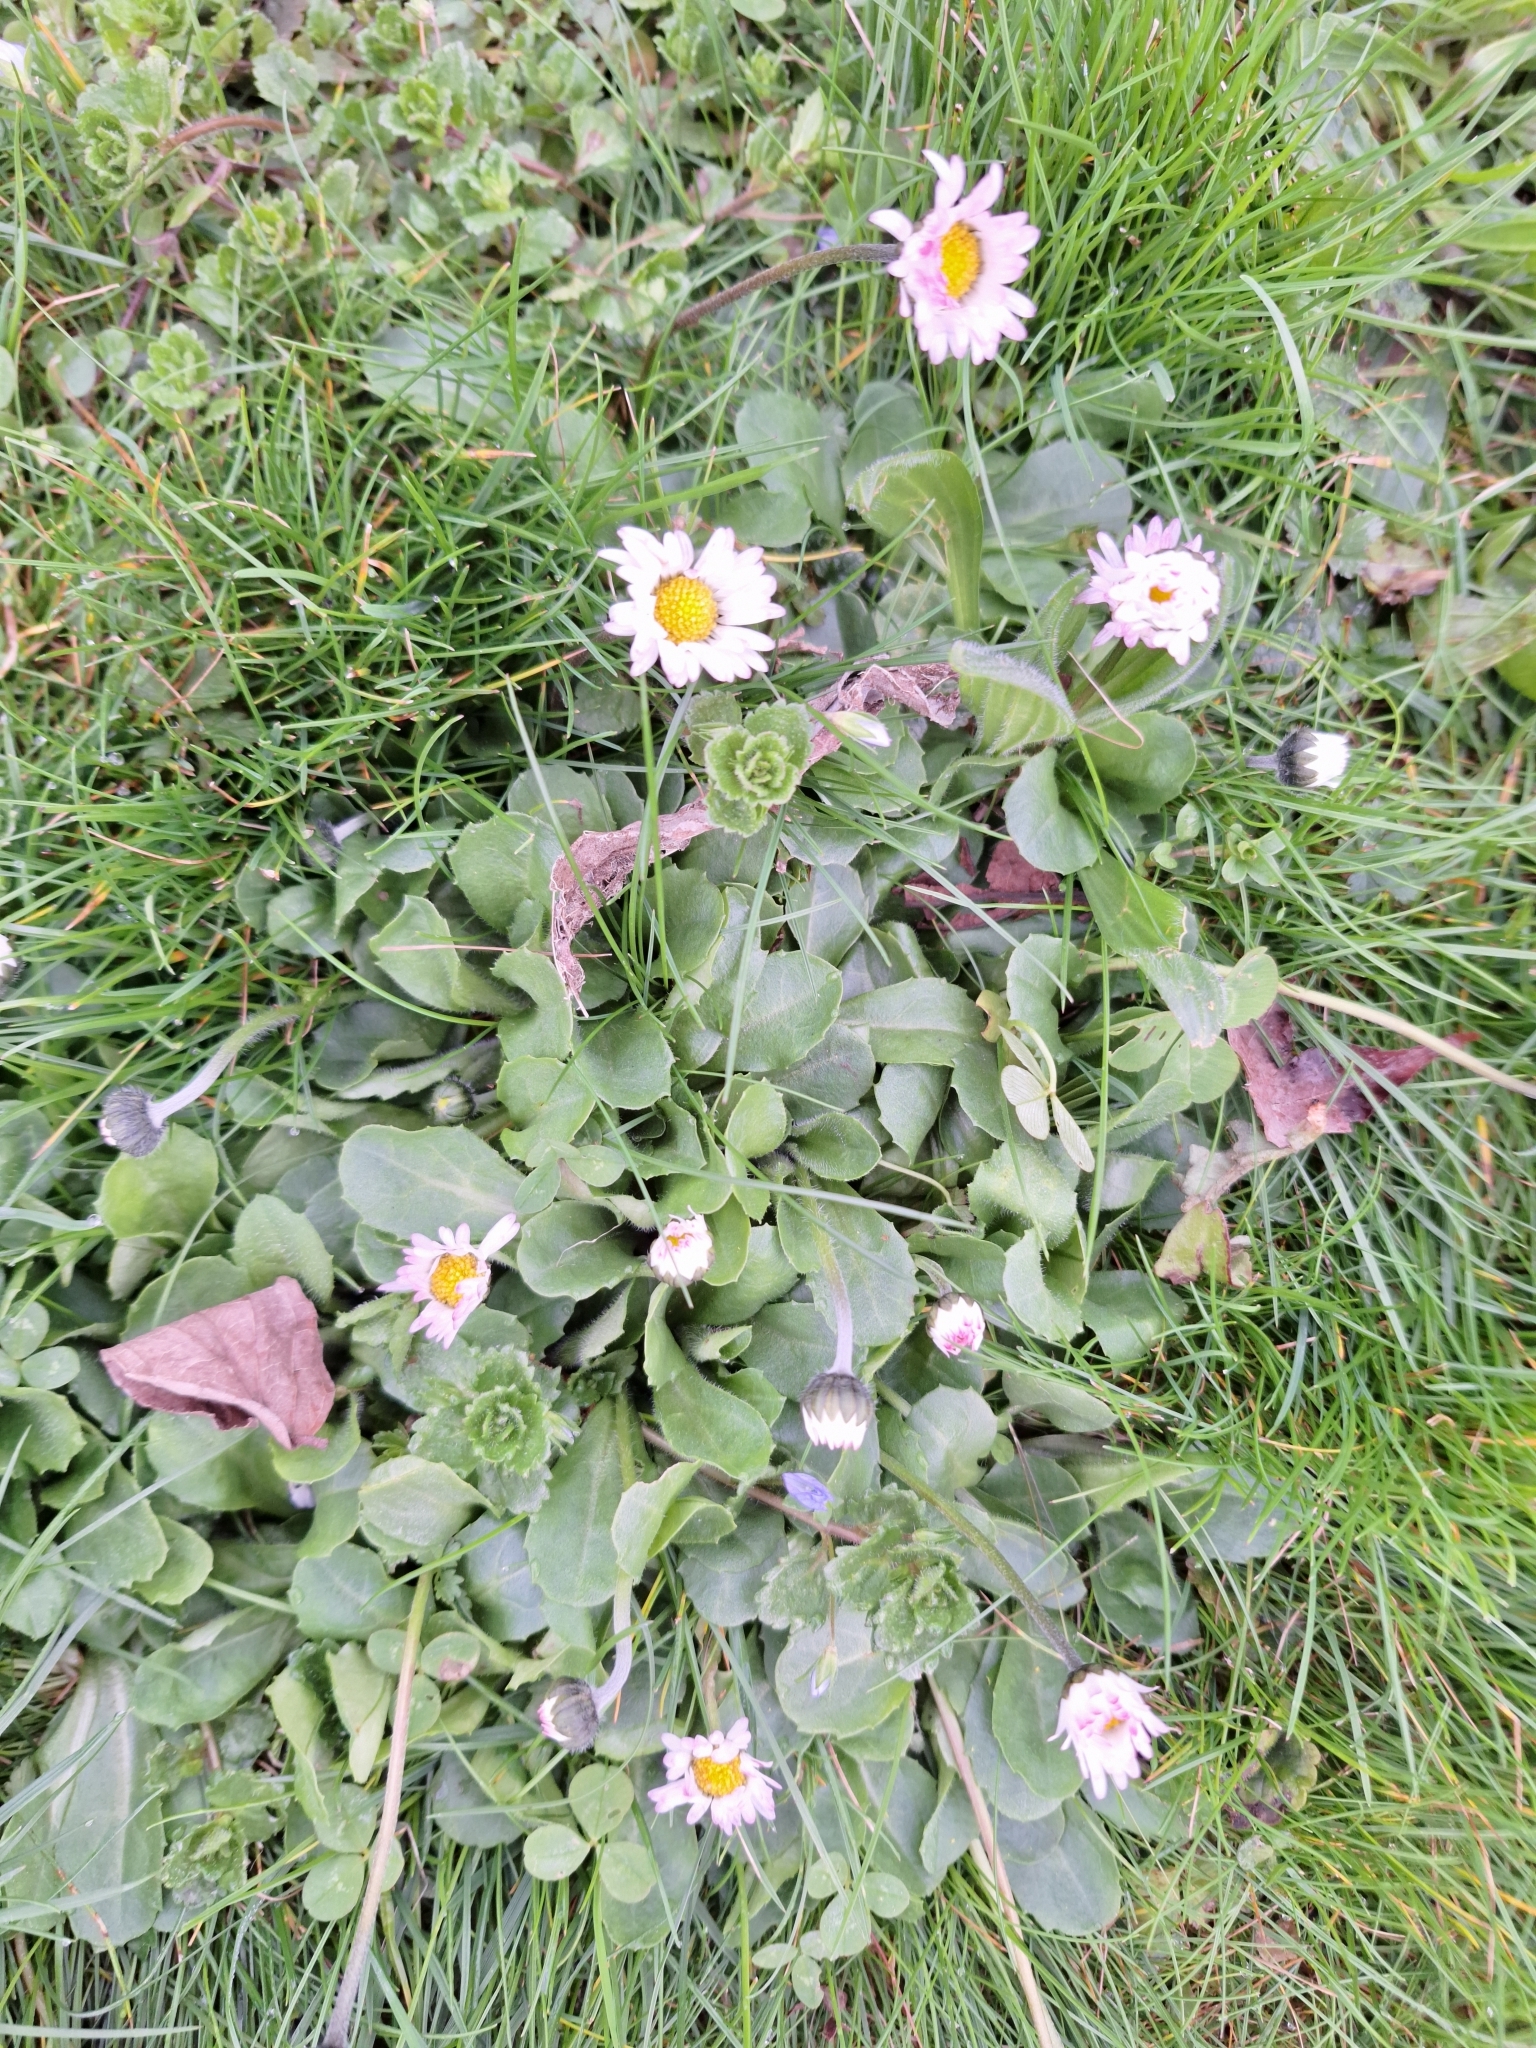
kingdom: Plantae
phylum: Tracheophyta
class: Magnoliopsida
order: Asterales
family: Asteraceae
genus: Bellis
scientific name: Bellis perennis
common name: Lawndaisy
